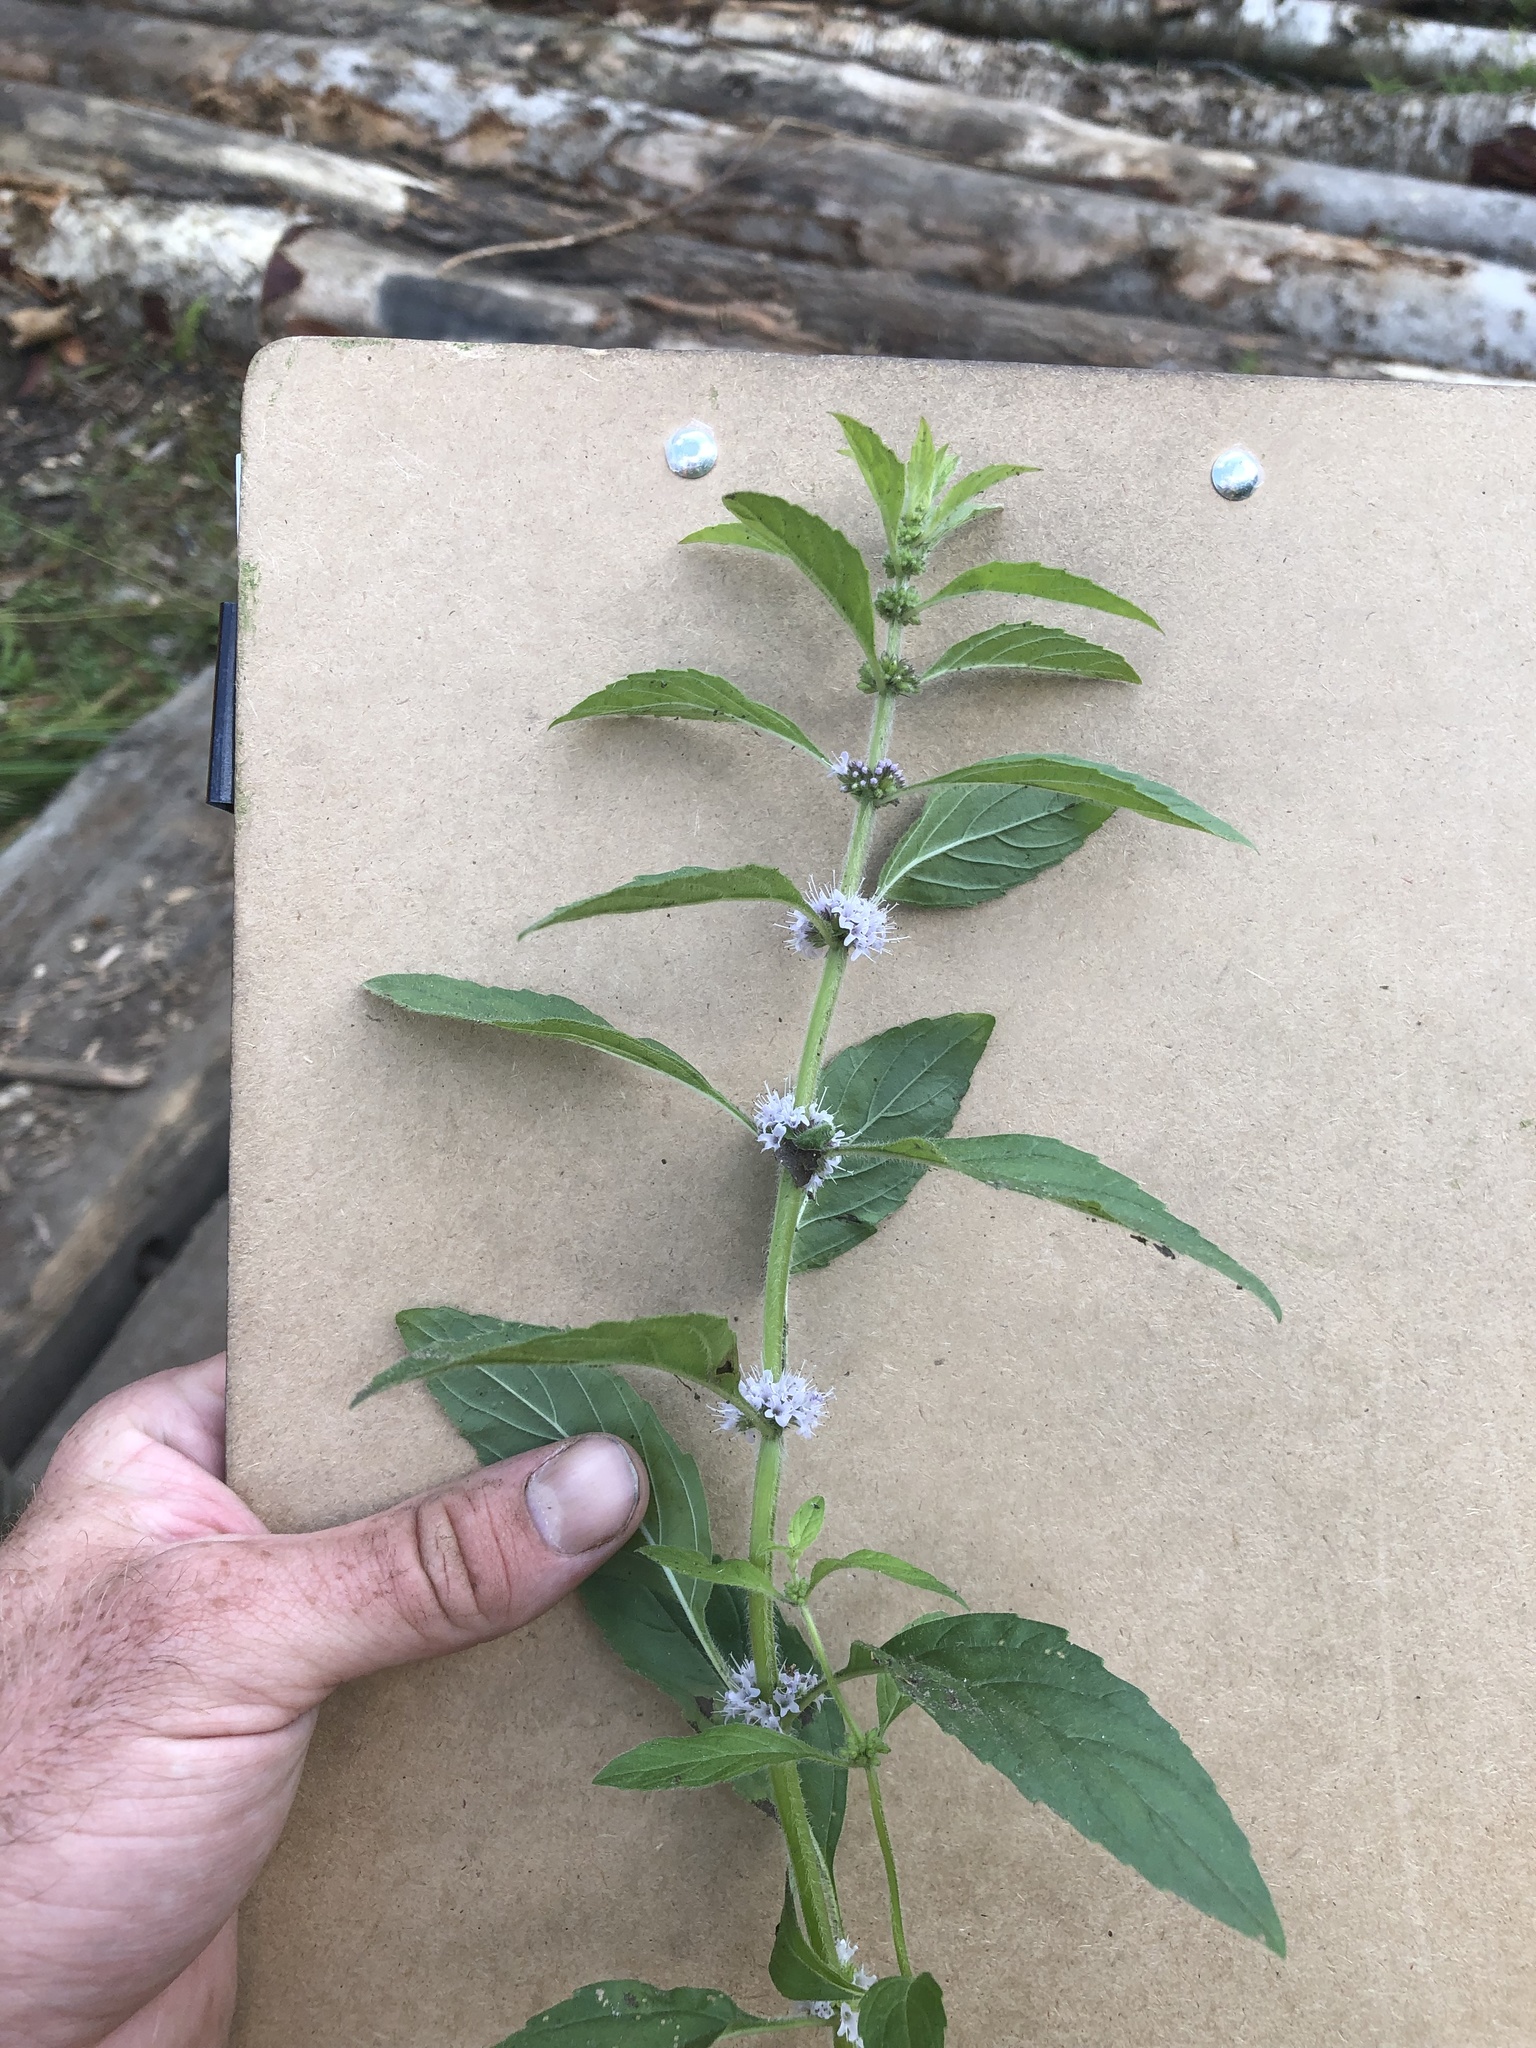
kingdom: Plantae
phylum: Tracheophyta
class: Magnoliopsida
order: Lamiales
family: Lamiaceae
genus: Mentha
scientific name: Mentha canadensis
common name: American corn mint
